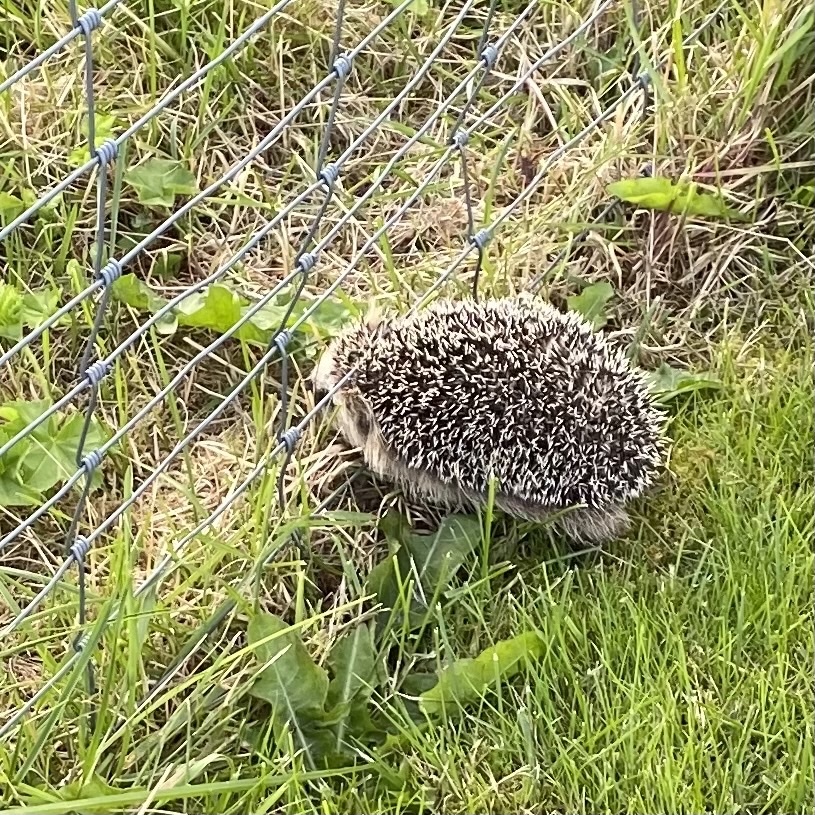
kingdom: Animalia
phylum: Chordata
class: Mammalia
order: Erinaceomorpha
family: Erinaceidae
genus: Erinaceus
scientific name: Erinaceus europaeus
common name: West european hedgehog
